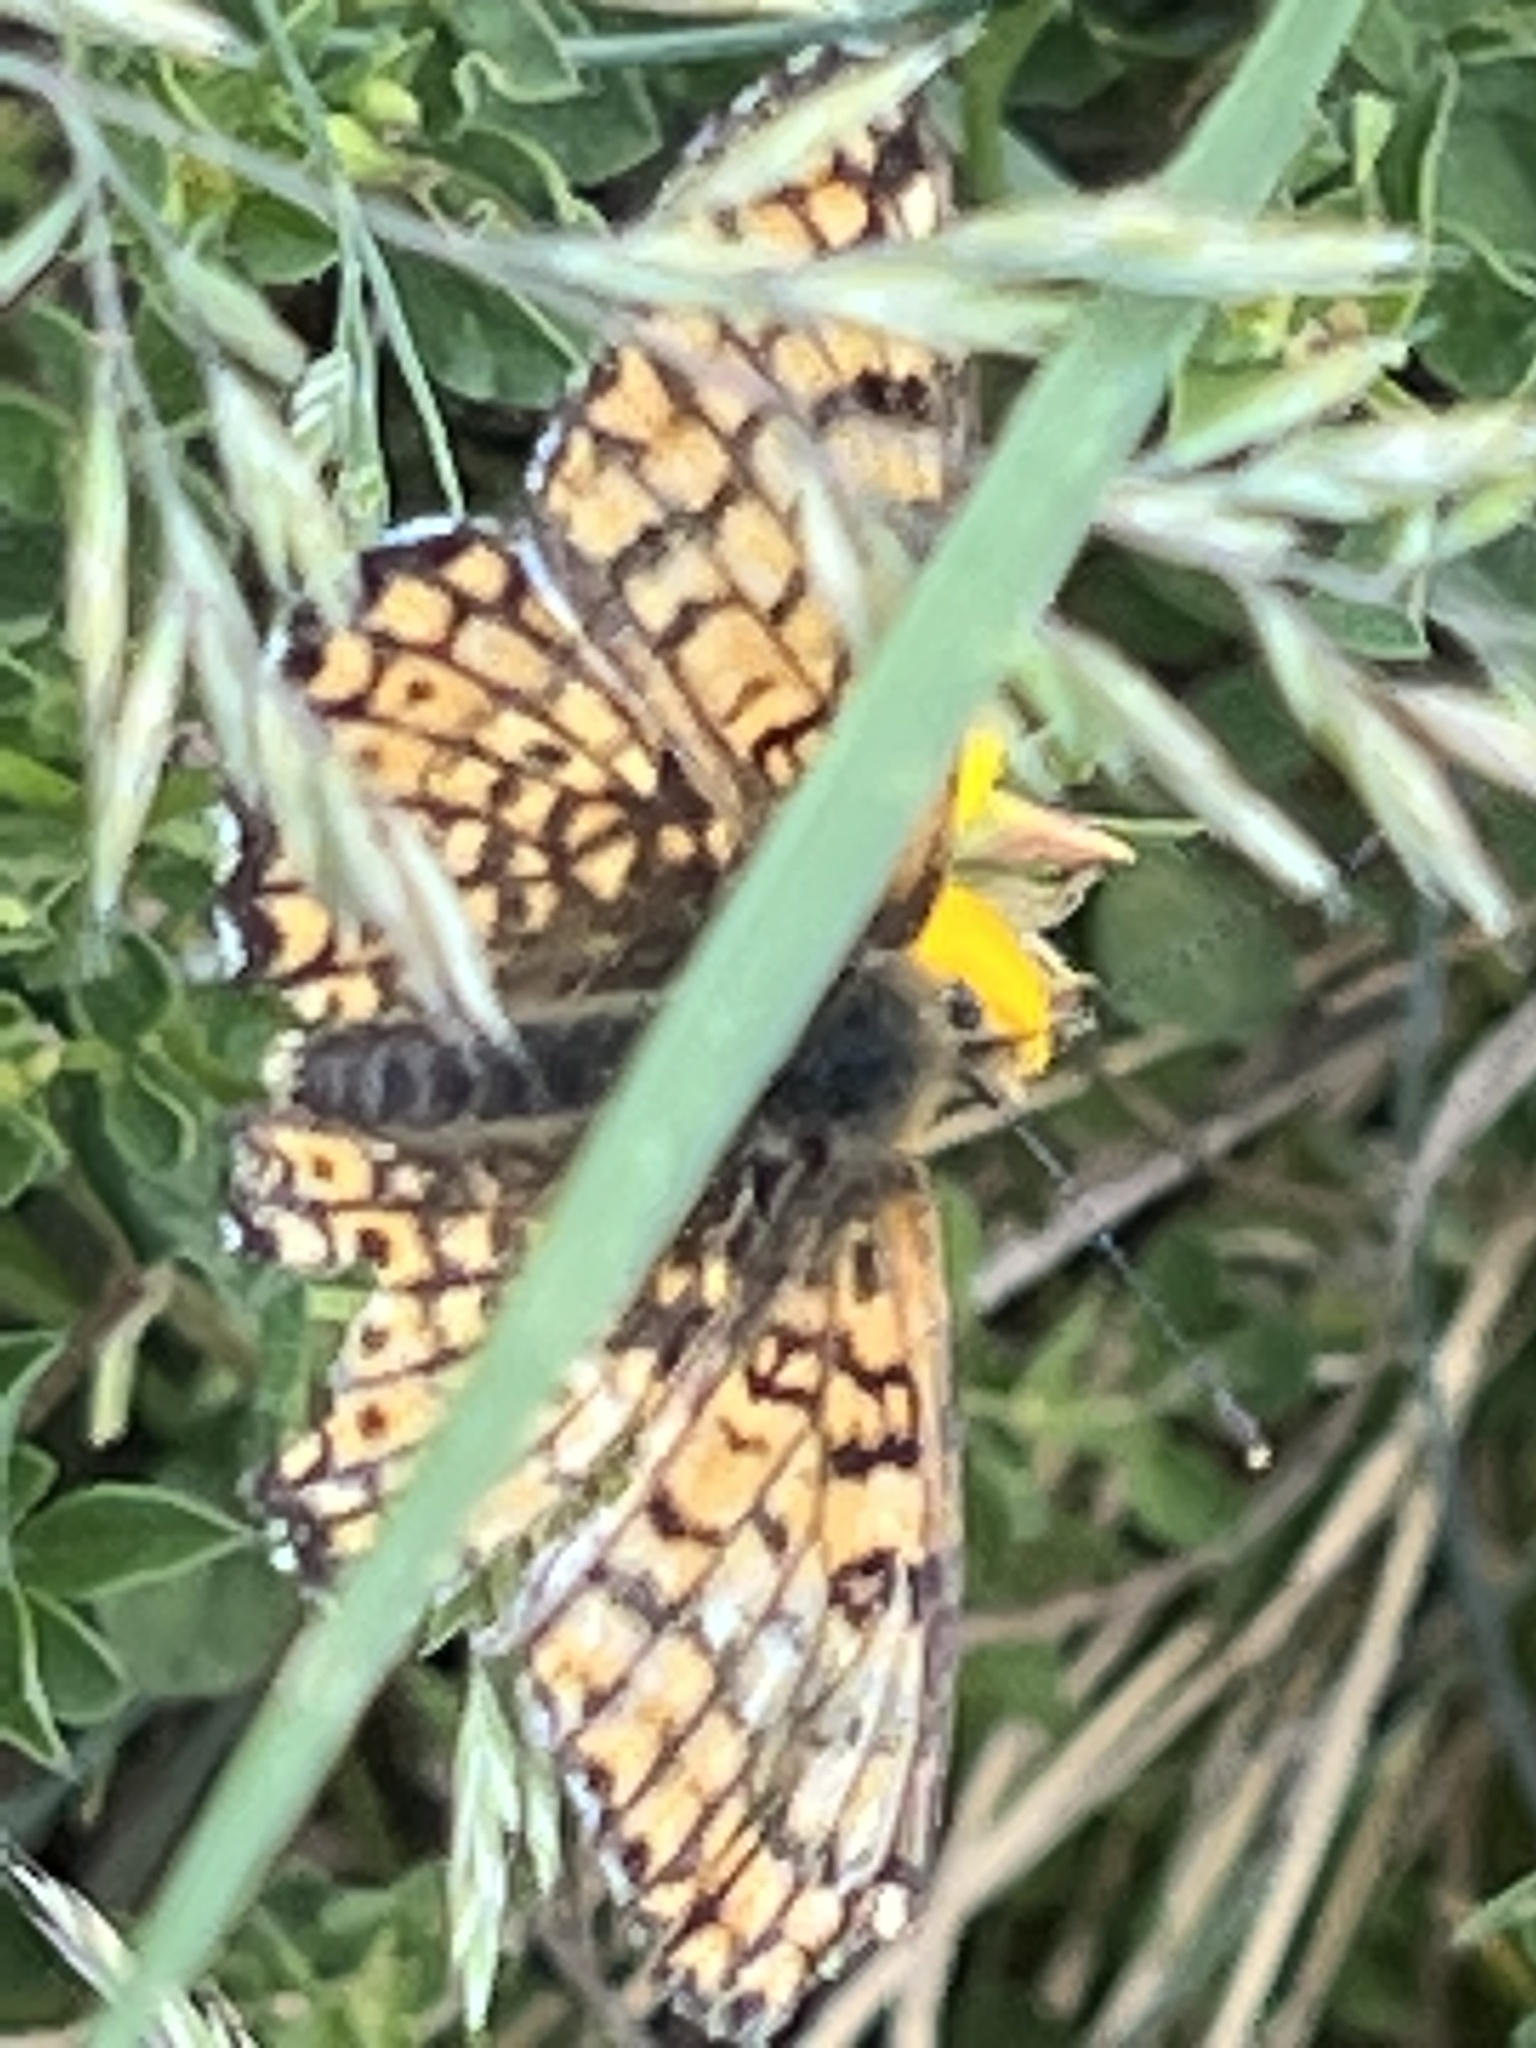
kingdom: Animalia
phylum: Arthropoda
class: Insecta
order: Lepidoptera
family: Nymphalidae
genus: Melitaea
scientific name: Melitaea cinxia
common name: Glanville fritillary
